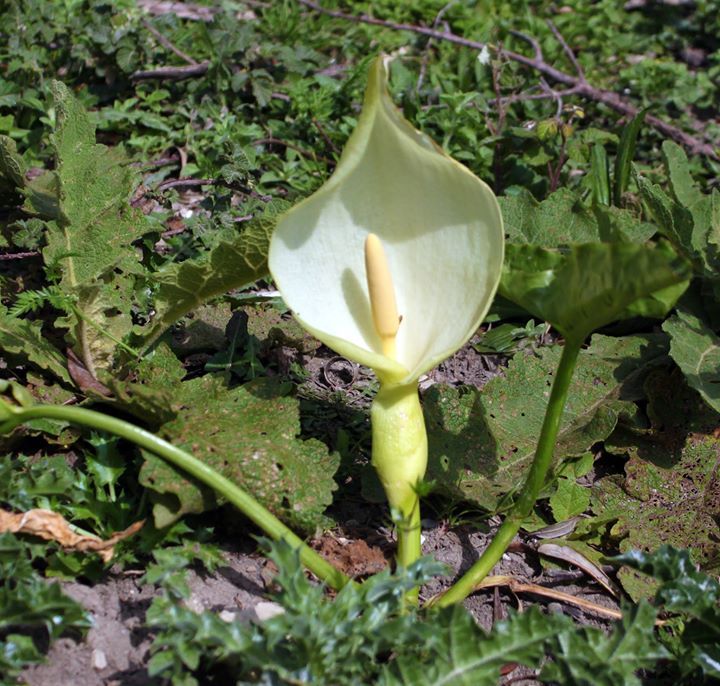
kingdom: Plantae
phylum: Tracheophyta
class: Liliopsida
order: Alismatales
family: Araceae
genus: Arum
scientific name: Arum
